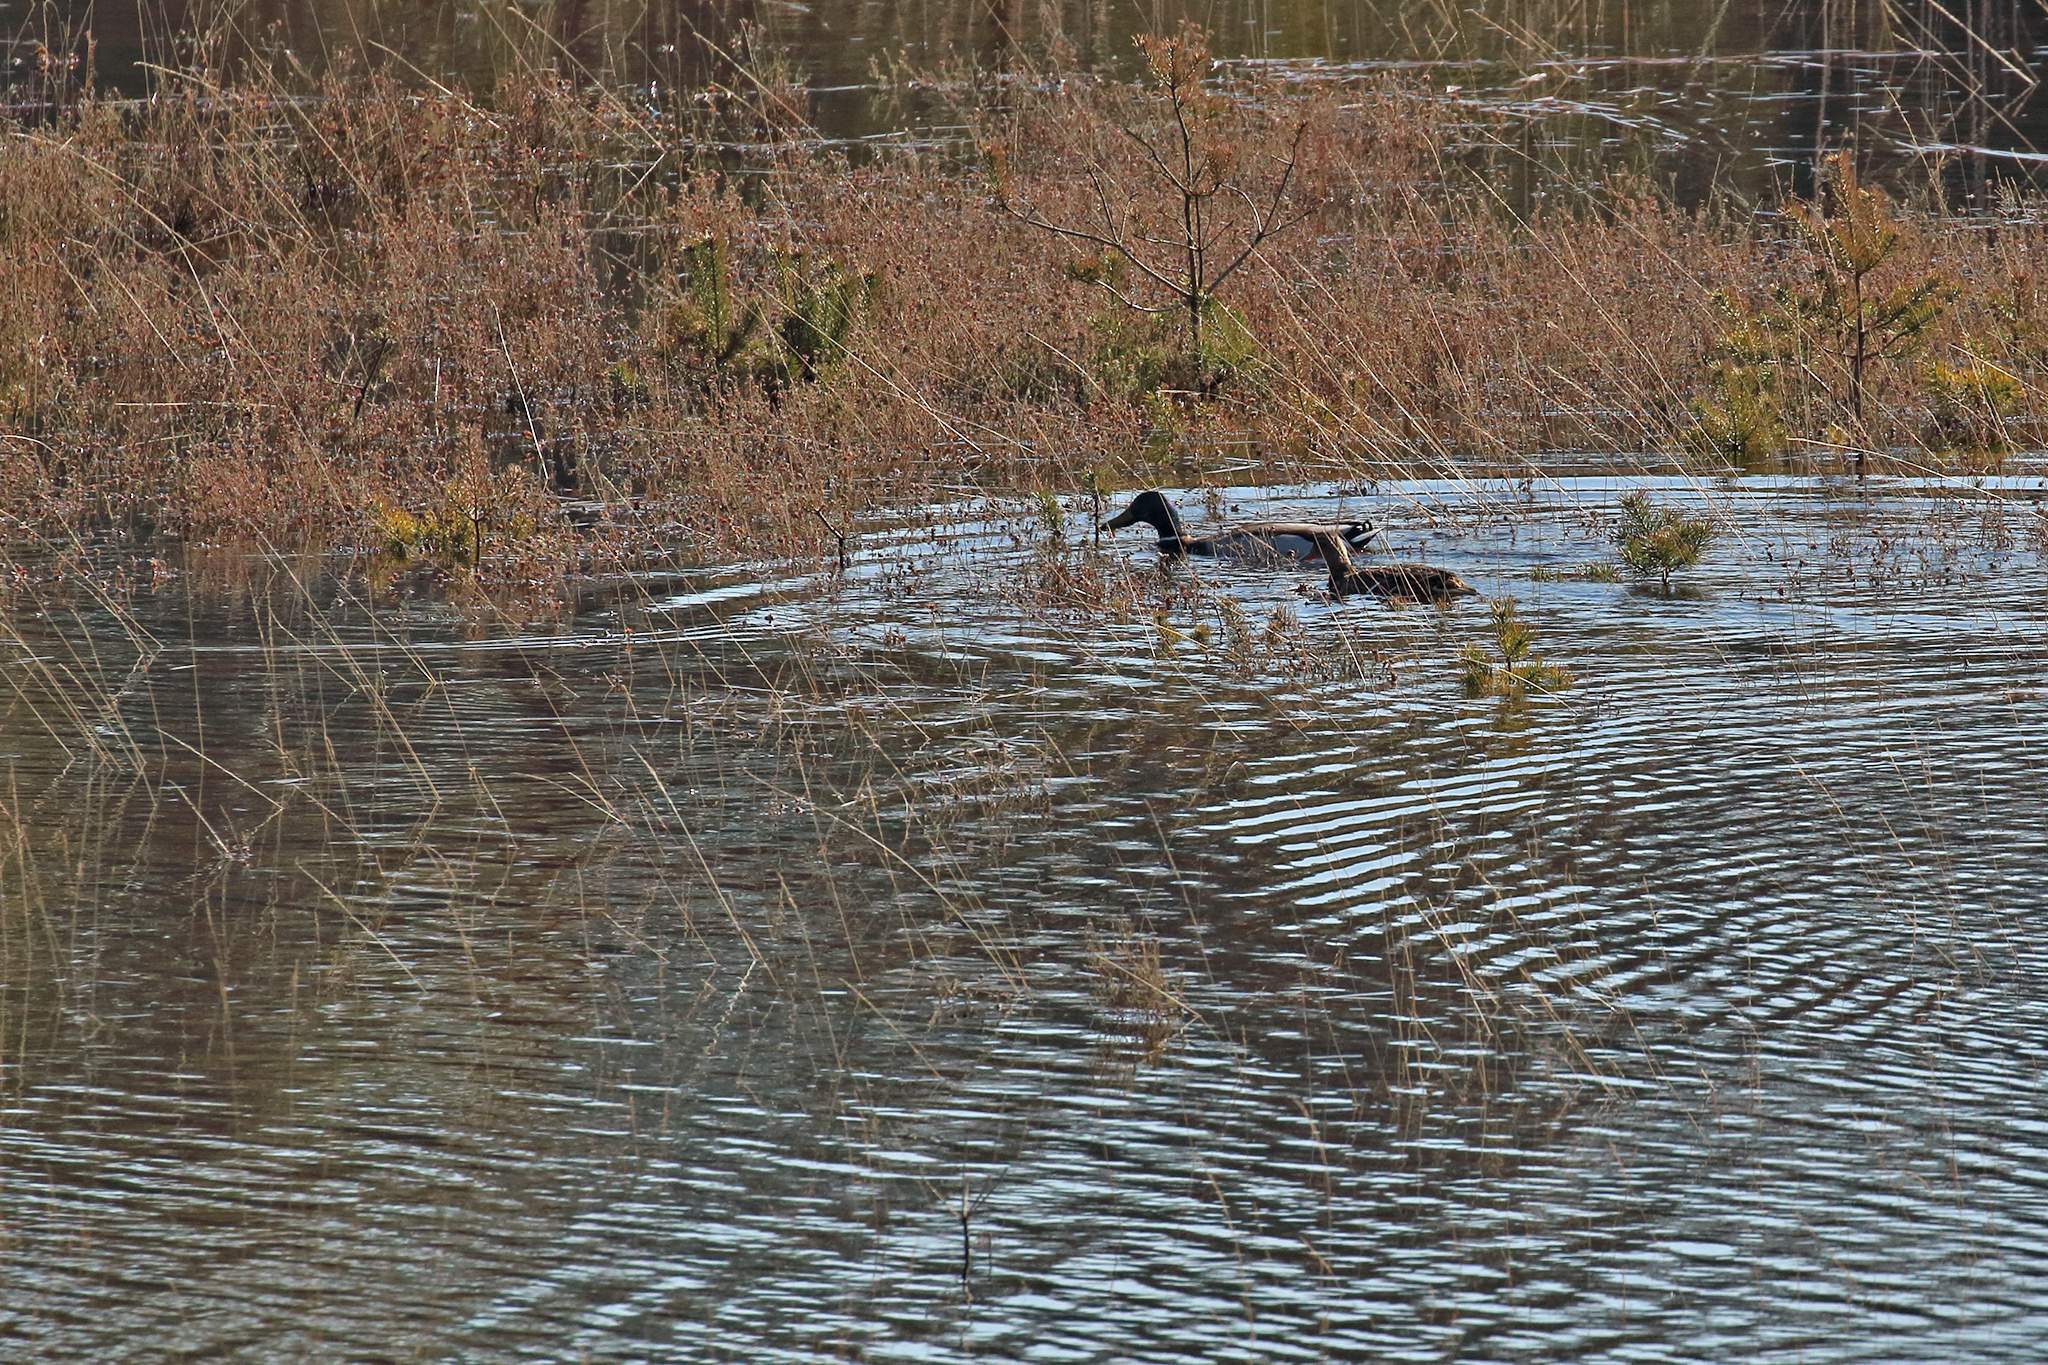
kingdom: Animalia
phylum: Chordata
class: Aves
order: Anseriformes
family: Anatidae
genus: Anas
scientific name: Anas platyrhynchos
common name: Mallard
